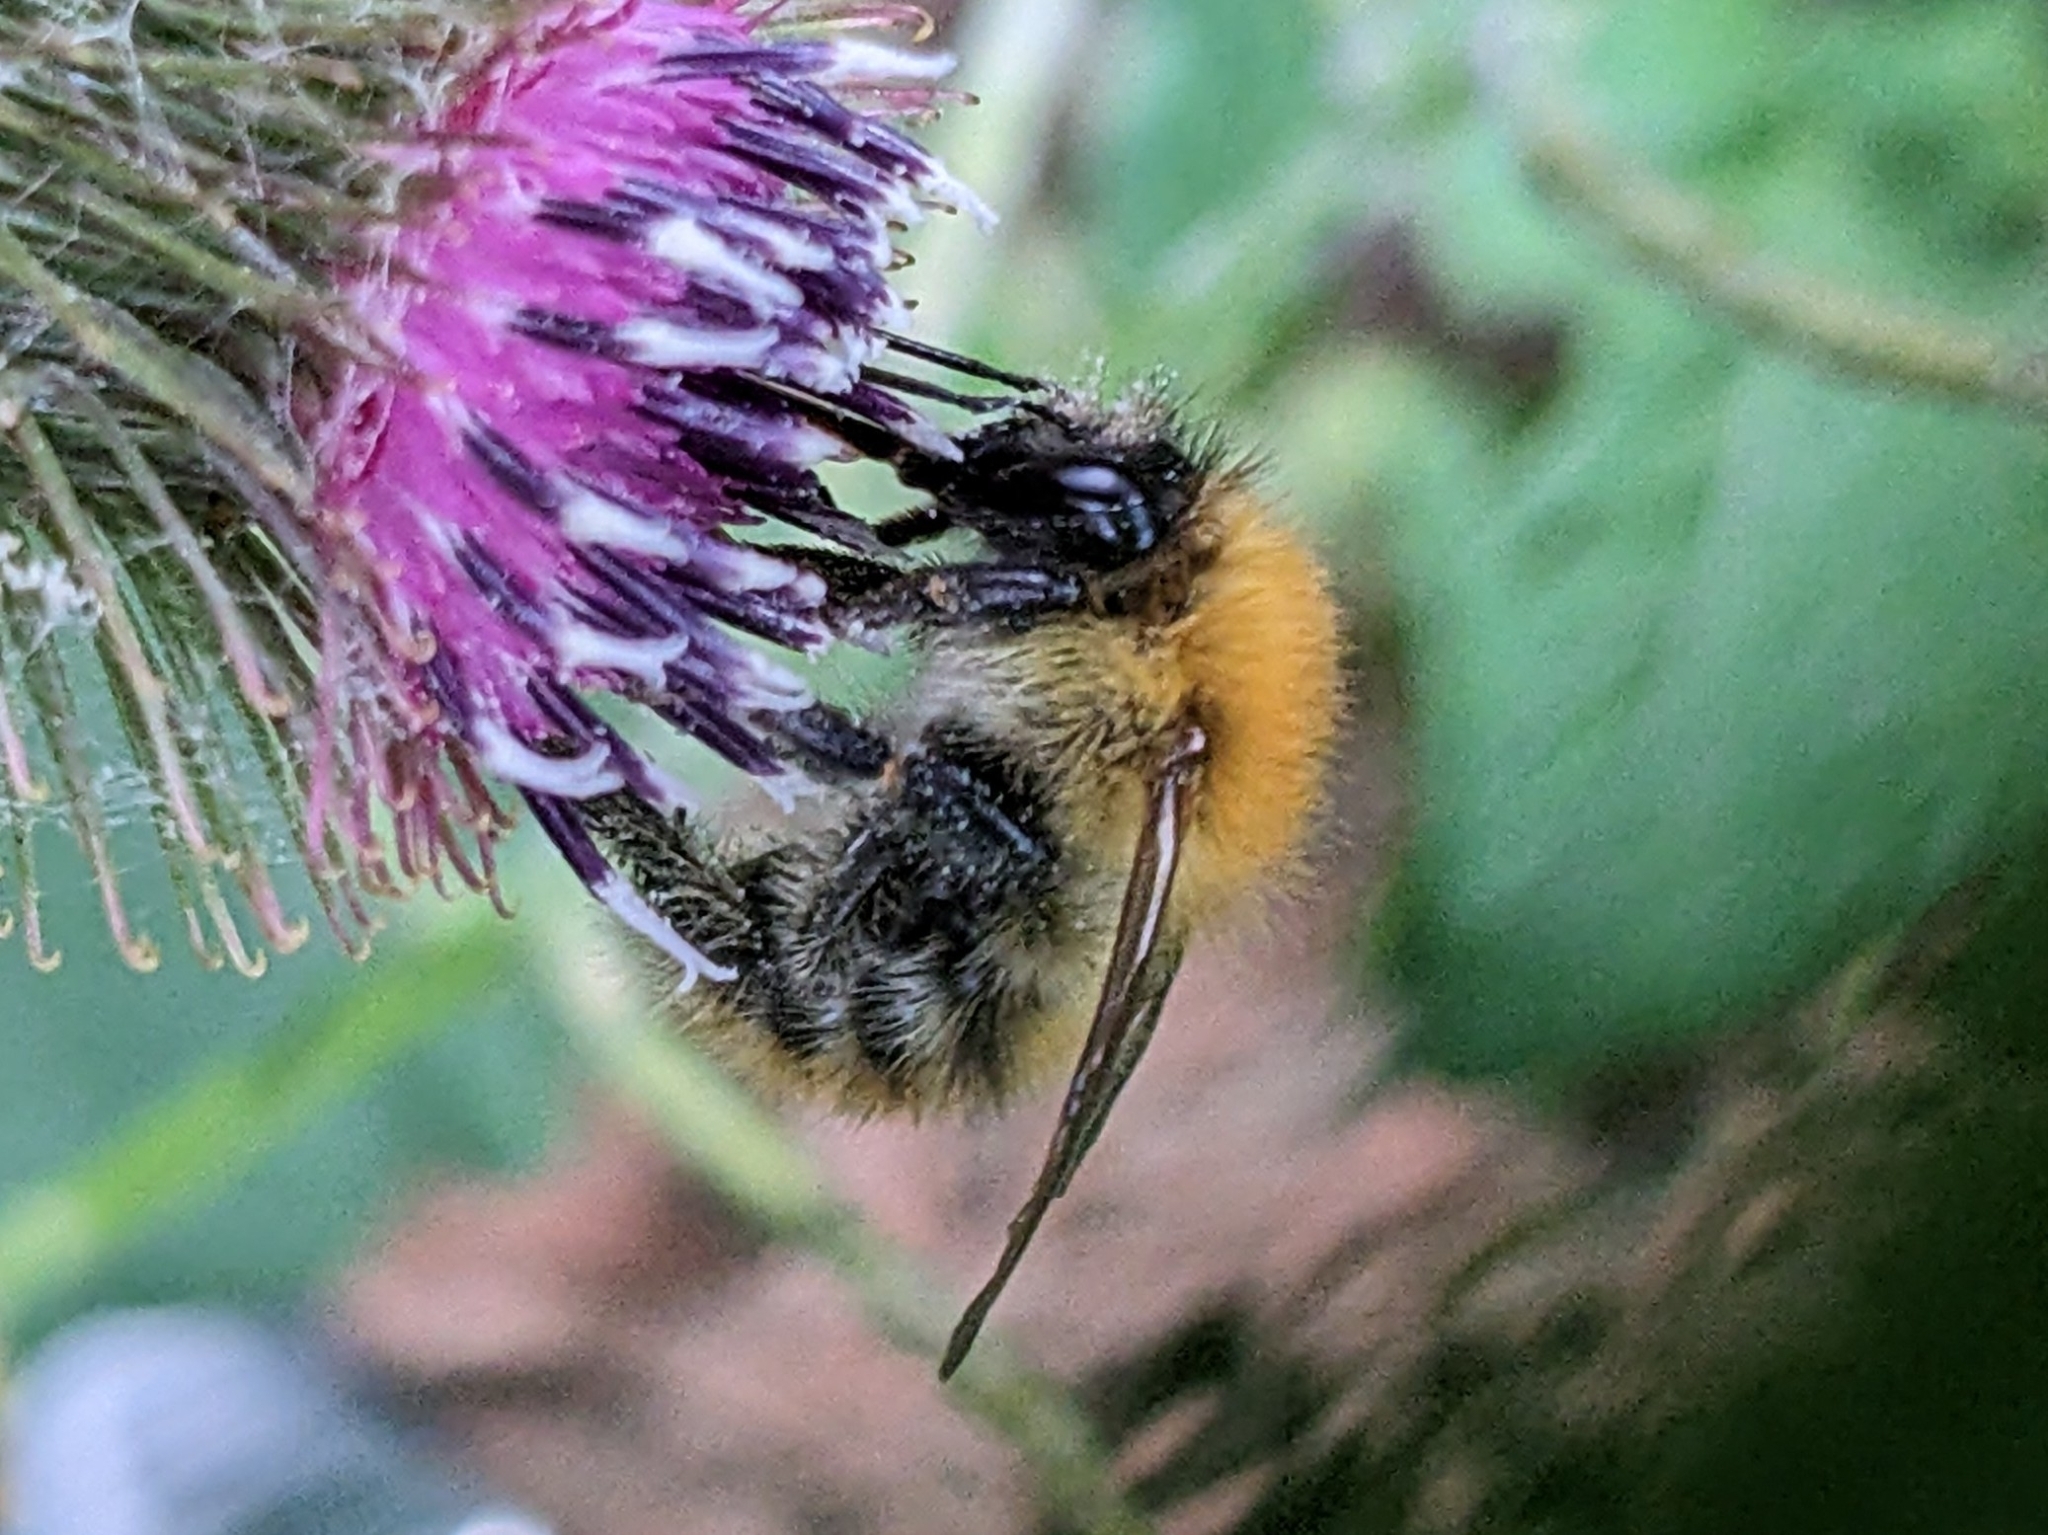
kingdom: Animalia
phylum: Arthropoda
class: Insecta
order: Hymenoptera
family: Apidae
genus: Bombus
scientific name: Bombus pascuorum
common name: Common carder bee
